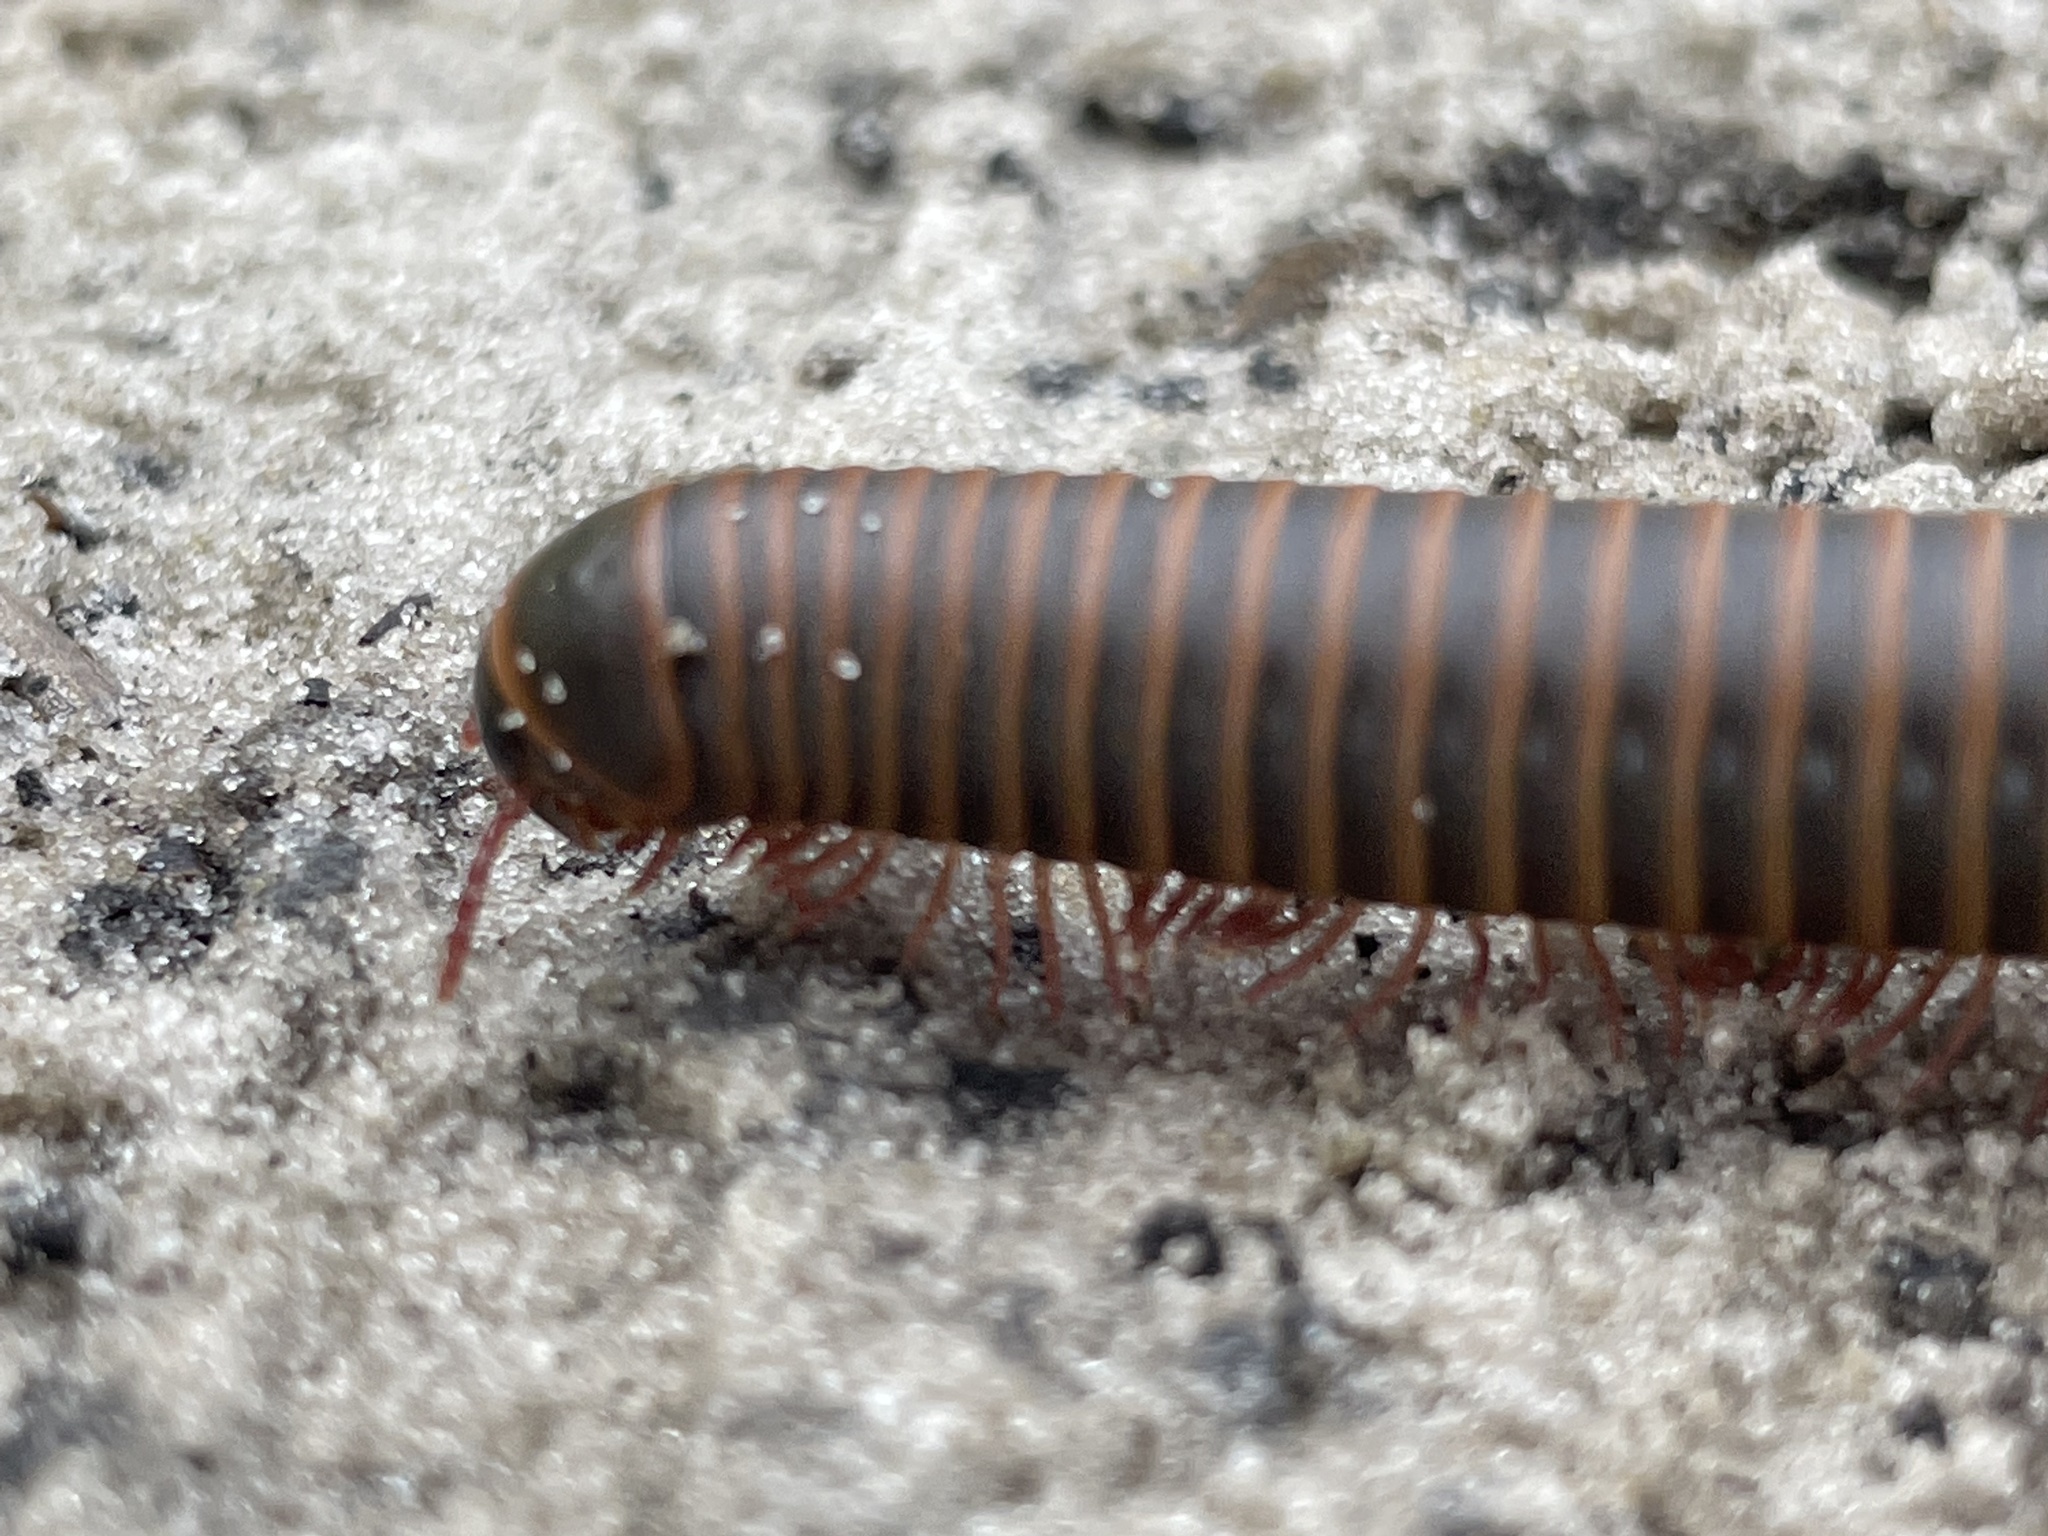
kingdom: Animalia
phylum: Arthropoda
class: Diplopoda
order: Spirobolida
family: Spirobolidae
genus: Narceus
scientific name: Narceus
